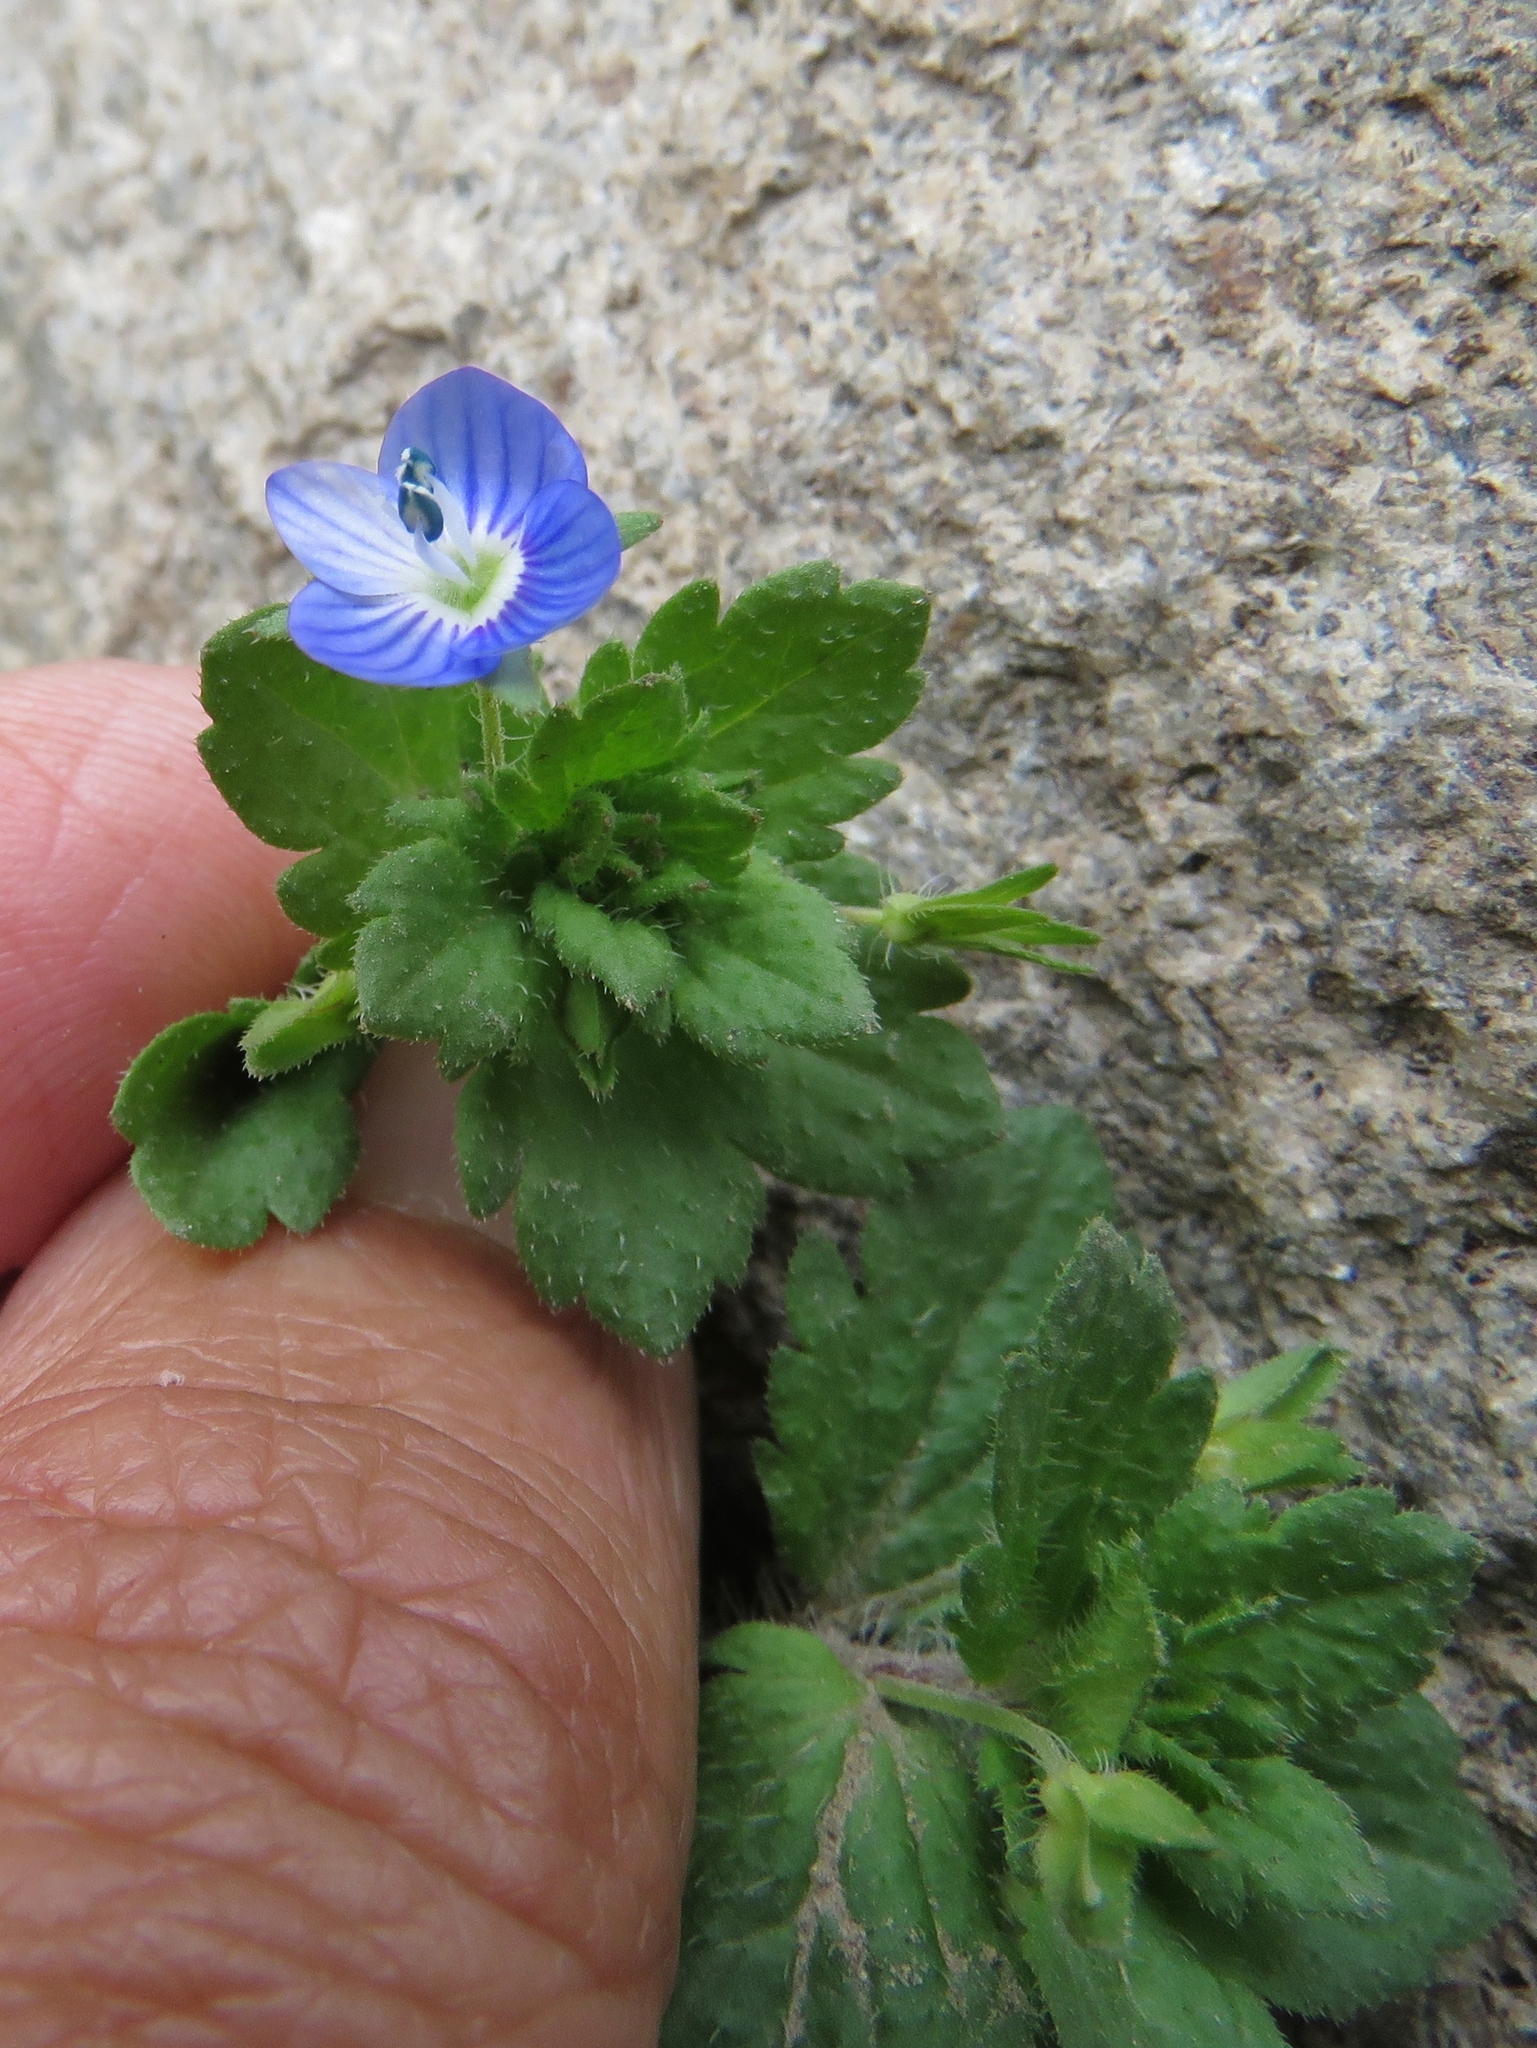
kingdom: Plantae
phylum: Tracheophyta
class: Magnoliopsida
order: Lamiales
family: Plantaginaceae
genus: Veronica
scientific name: Veronica persica
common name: Common field-speedwell
